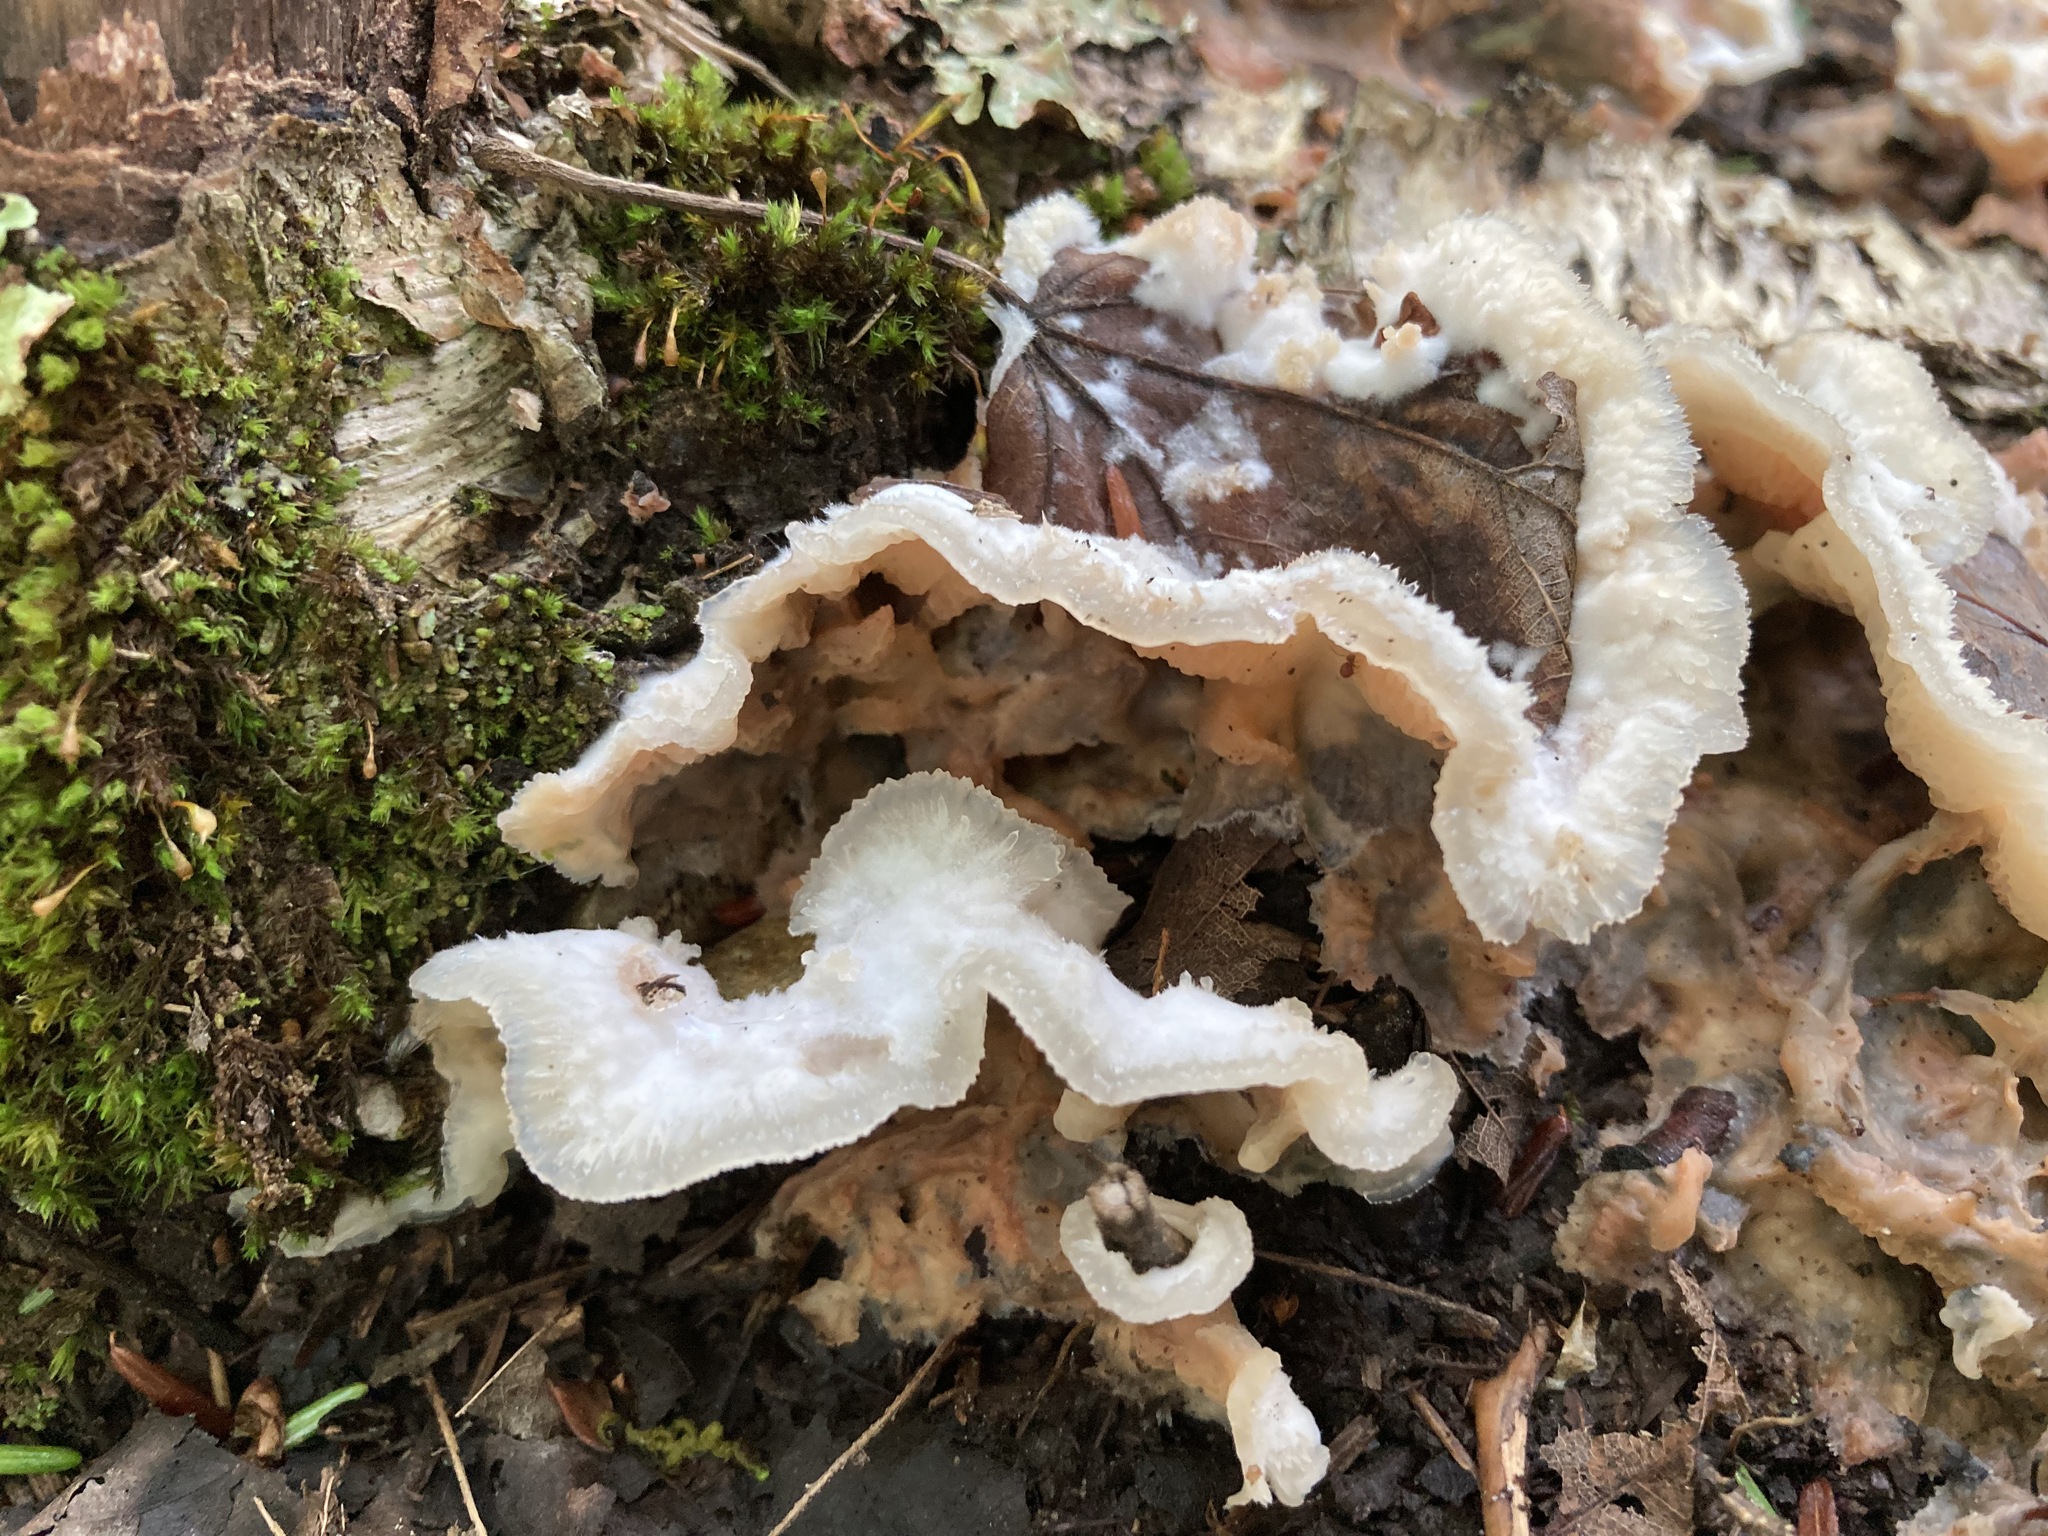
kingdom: Fungi
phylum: Basidiomycota
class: Agaricomycetes
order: Polyporales
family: Meruliaceae
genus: Phlebia
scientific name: Phlebia tremellosa
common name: Jelly rot
